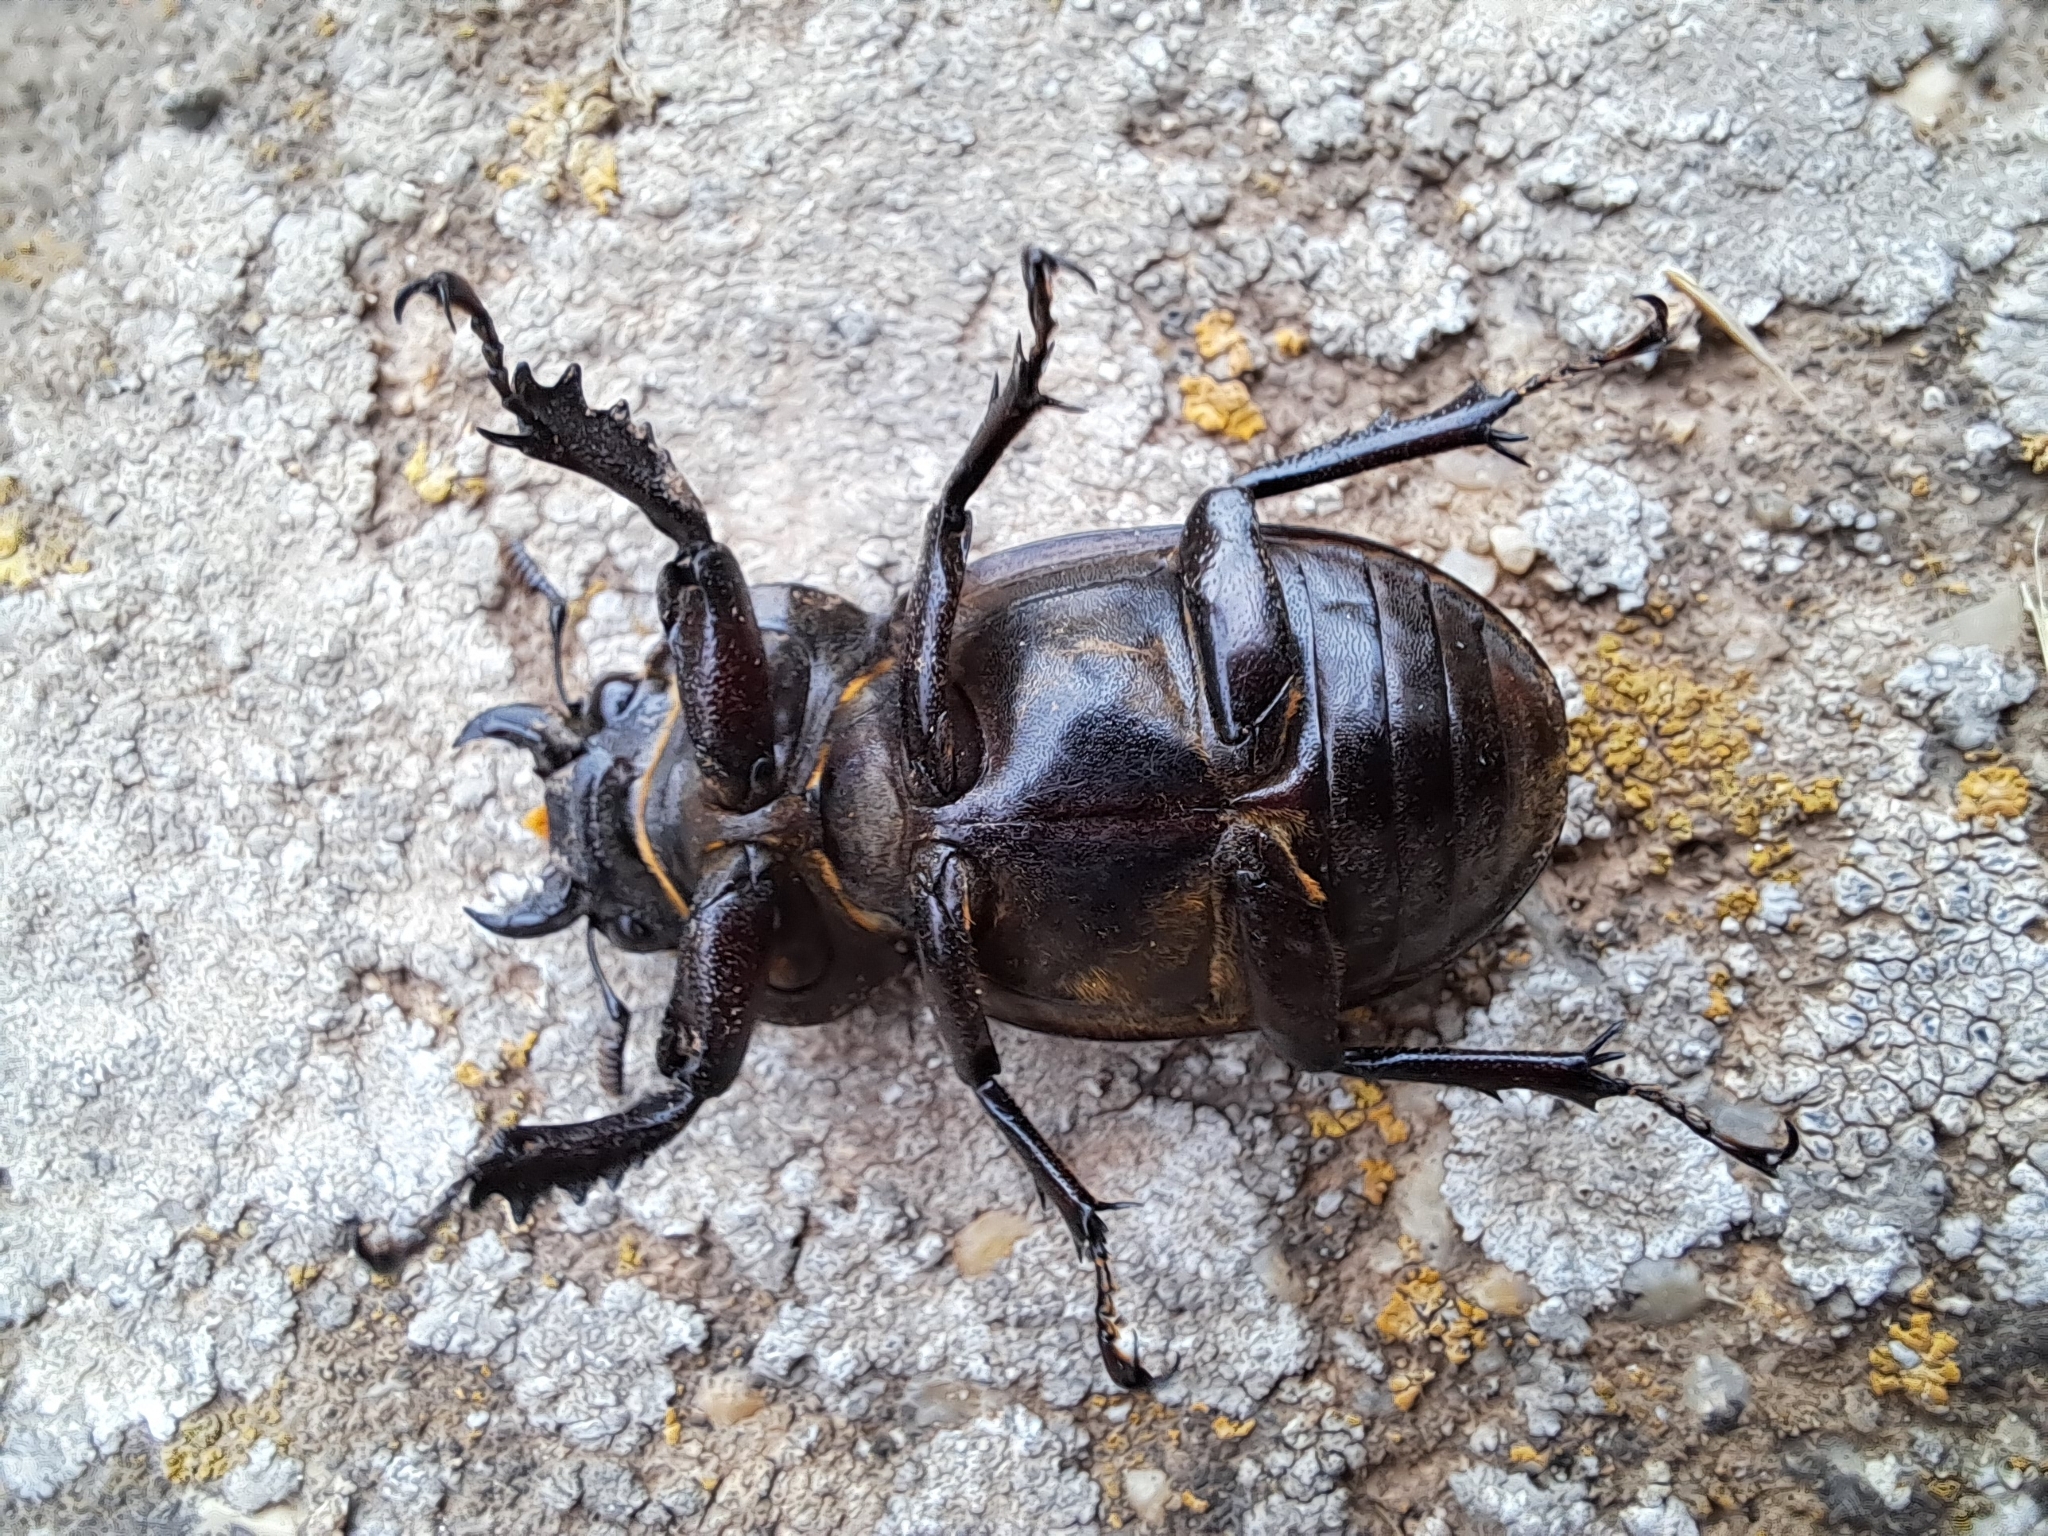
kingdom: Animalia
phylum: Arthropoda
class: Insecta
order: Coleoptera
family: Lucanidae
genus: Lucanus
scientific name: Lucanus barbarossa
